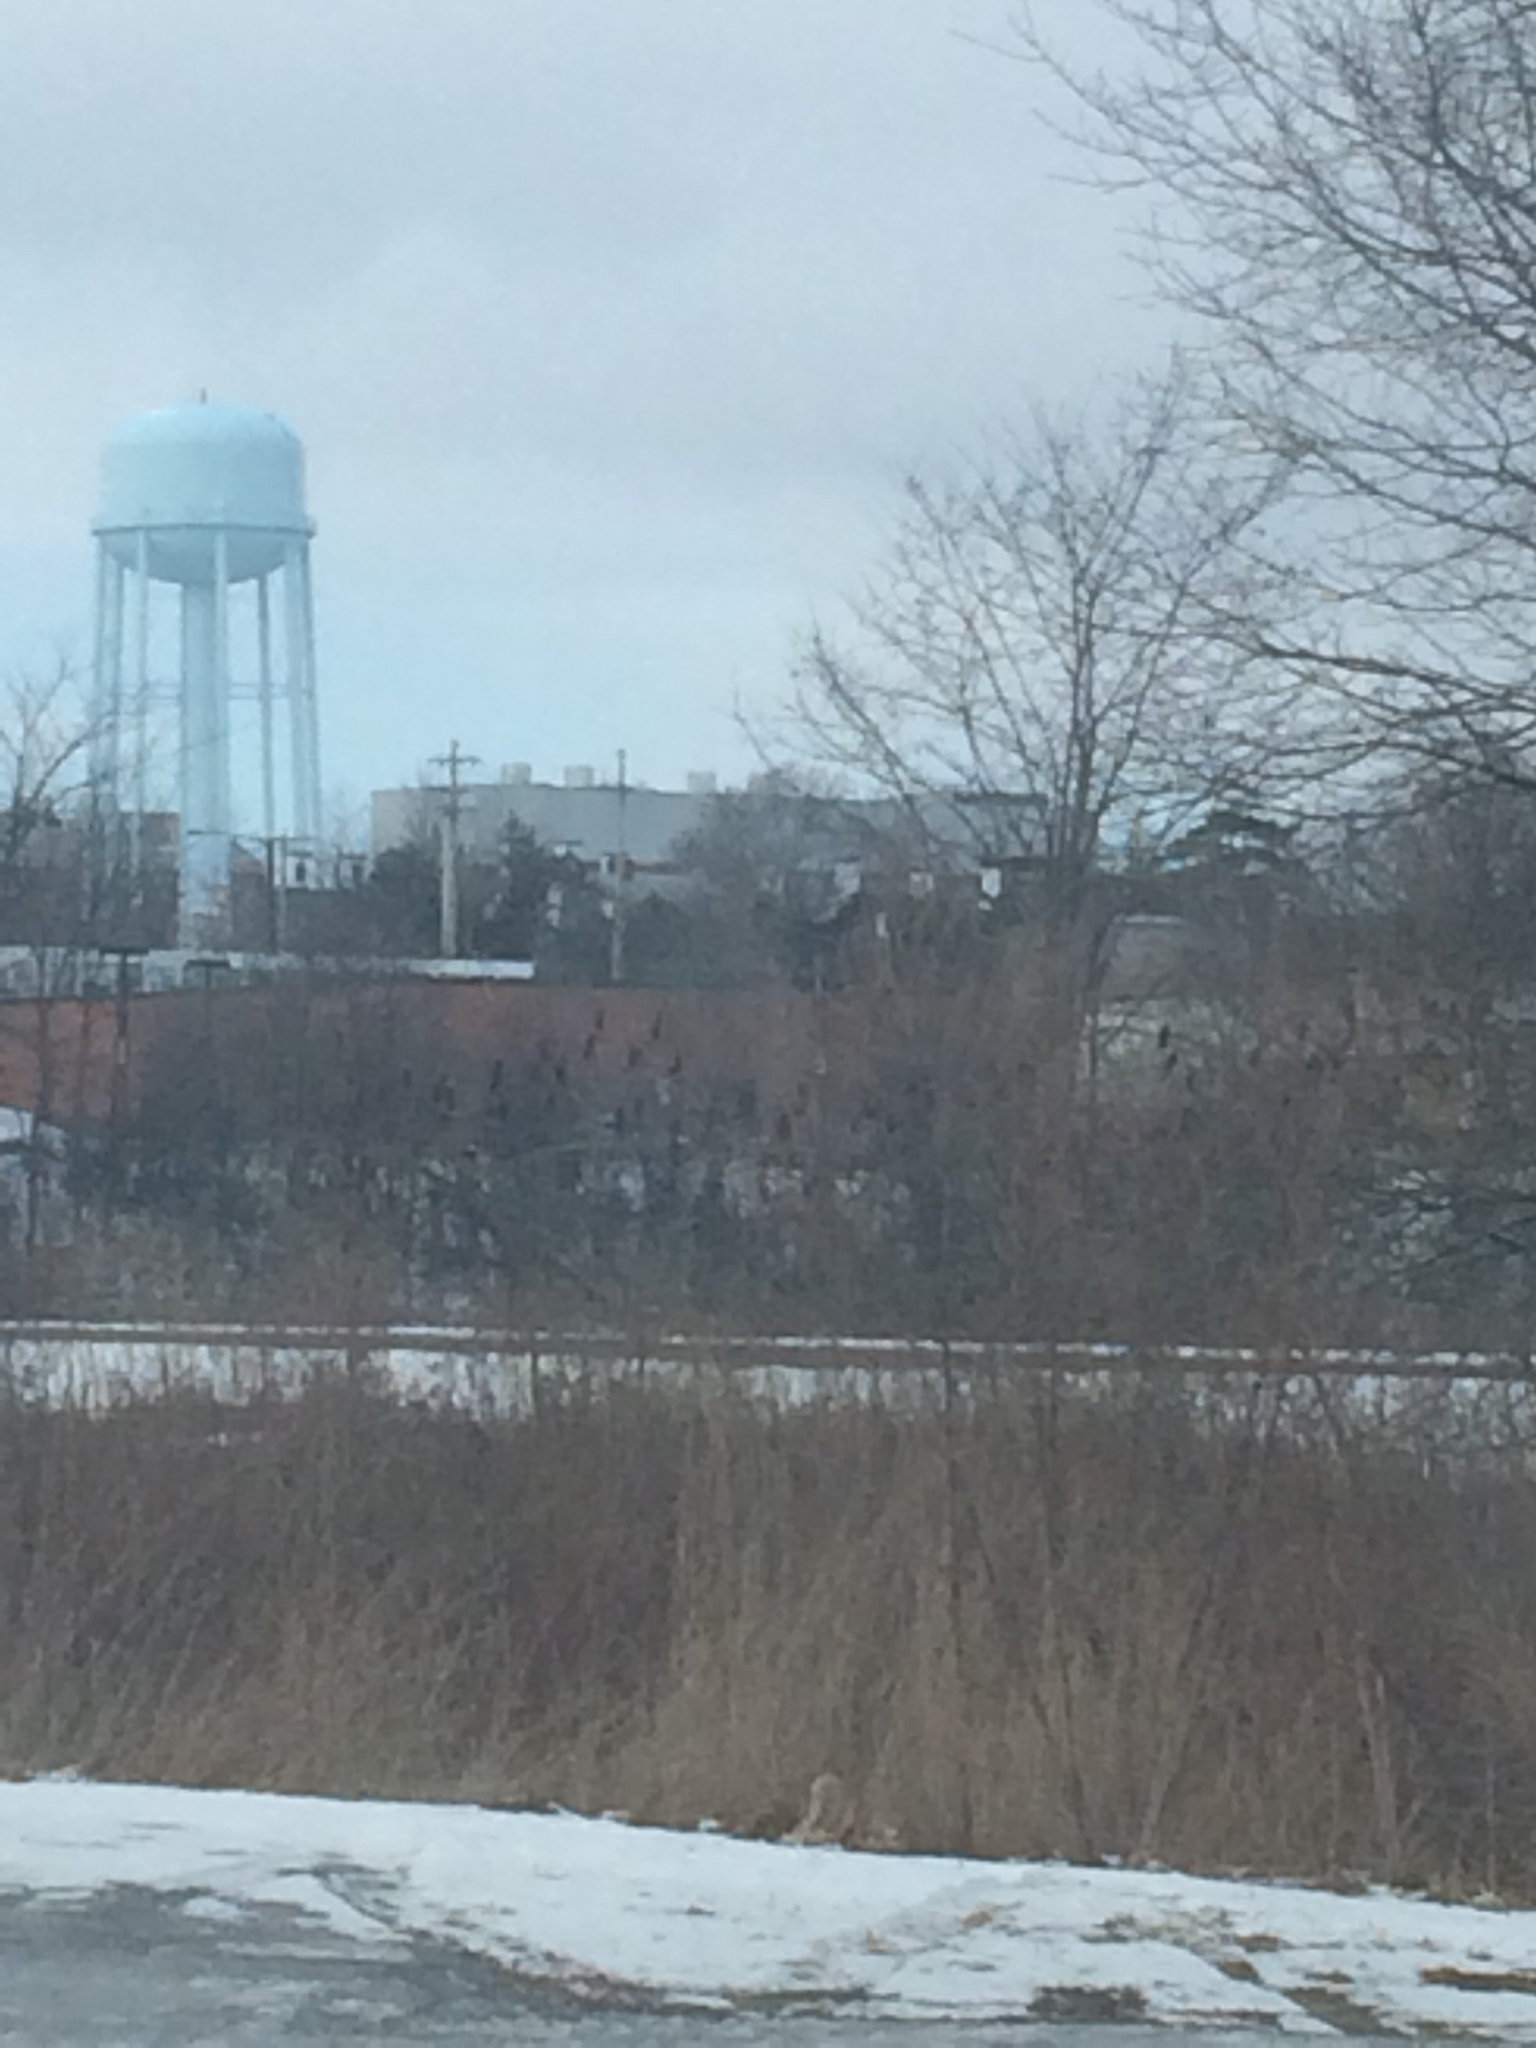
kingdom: Plantae
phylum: Tracheophyta
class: Magnoliopsida
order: Sapindales
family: Anacardiaceae
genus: Rhus
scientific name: Rhus typhina
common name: Staghorn sumac
